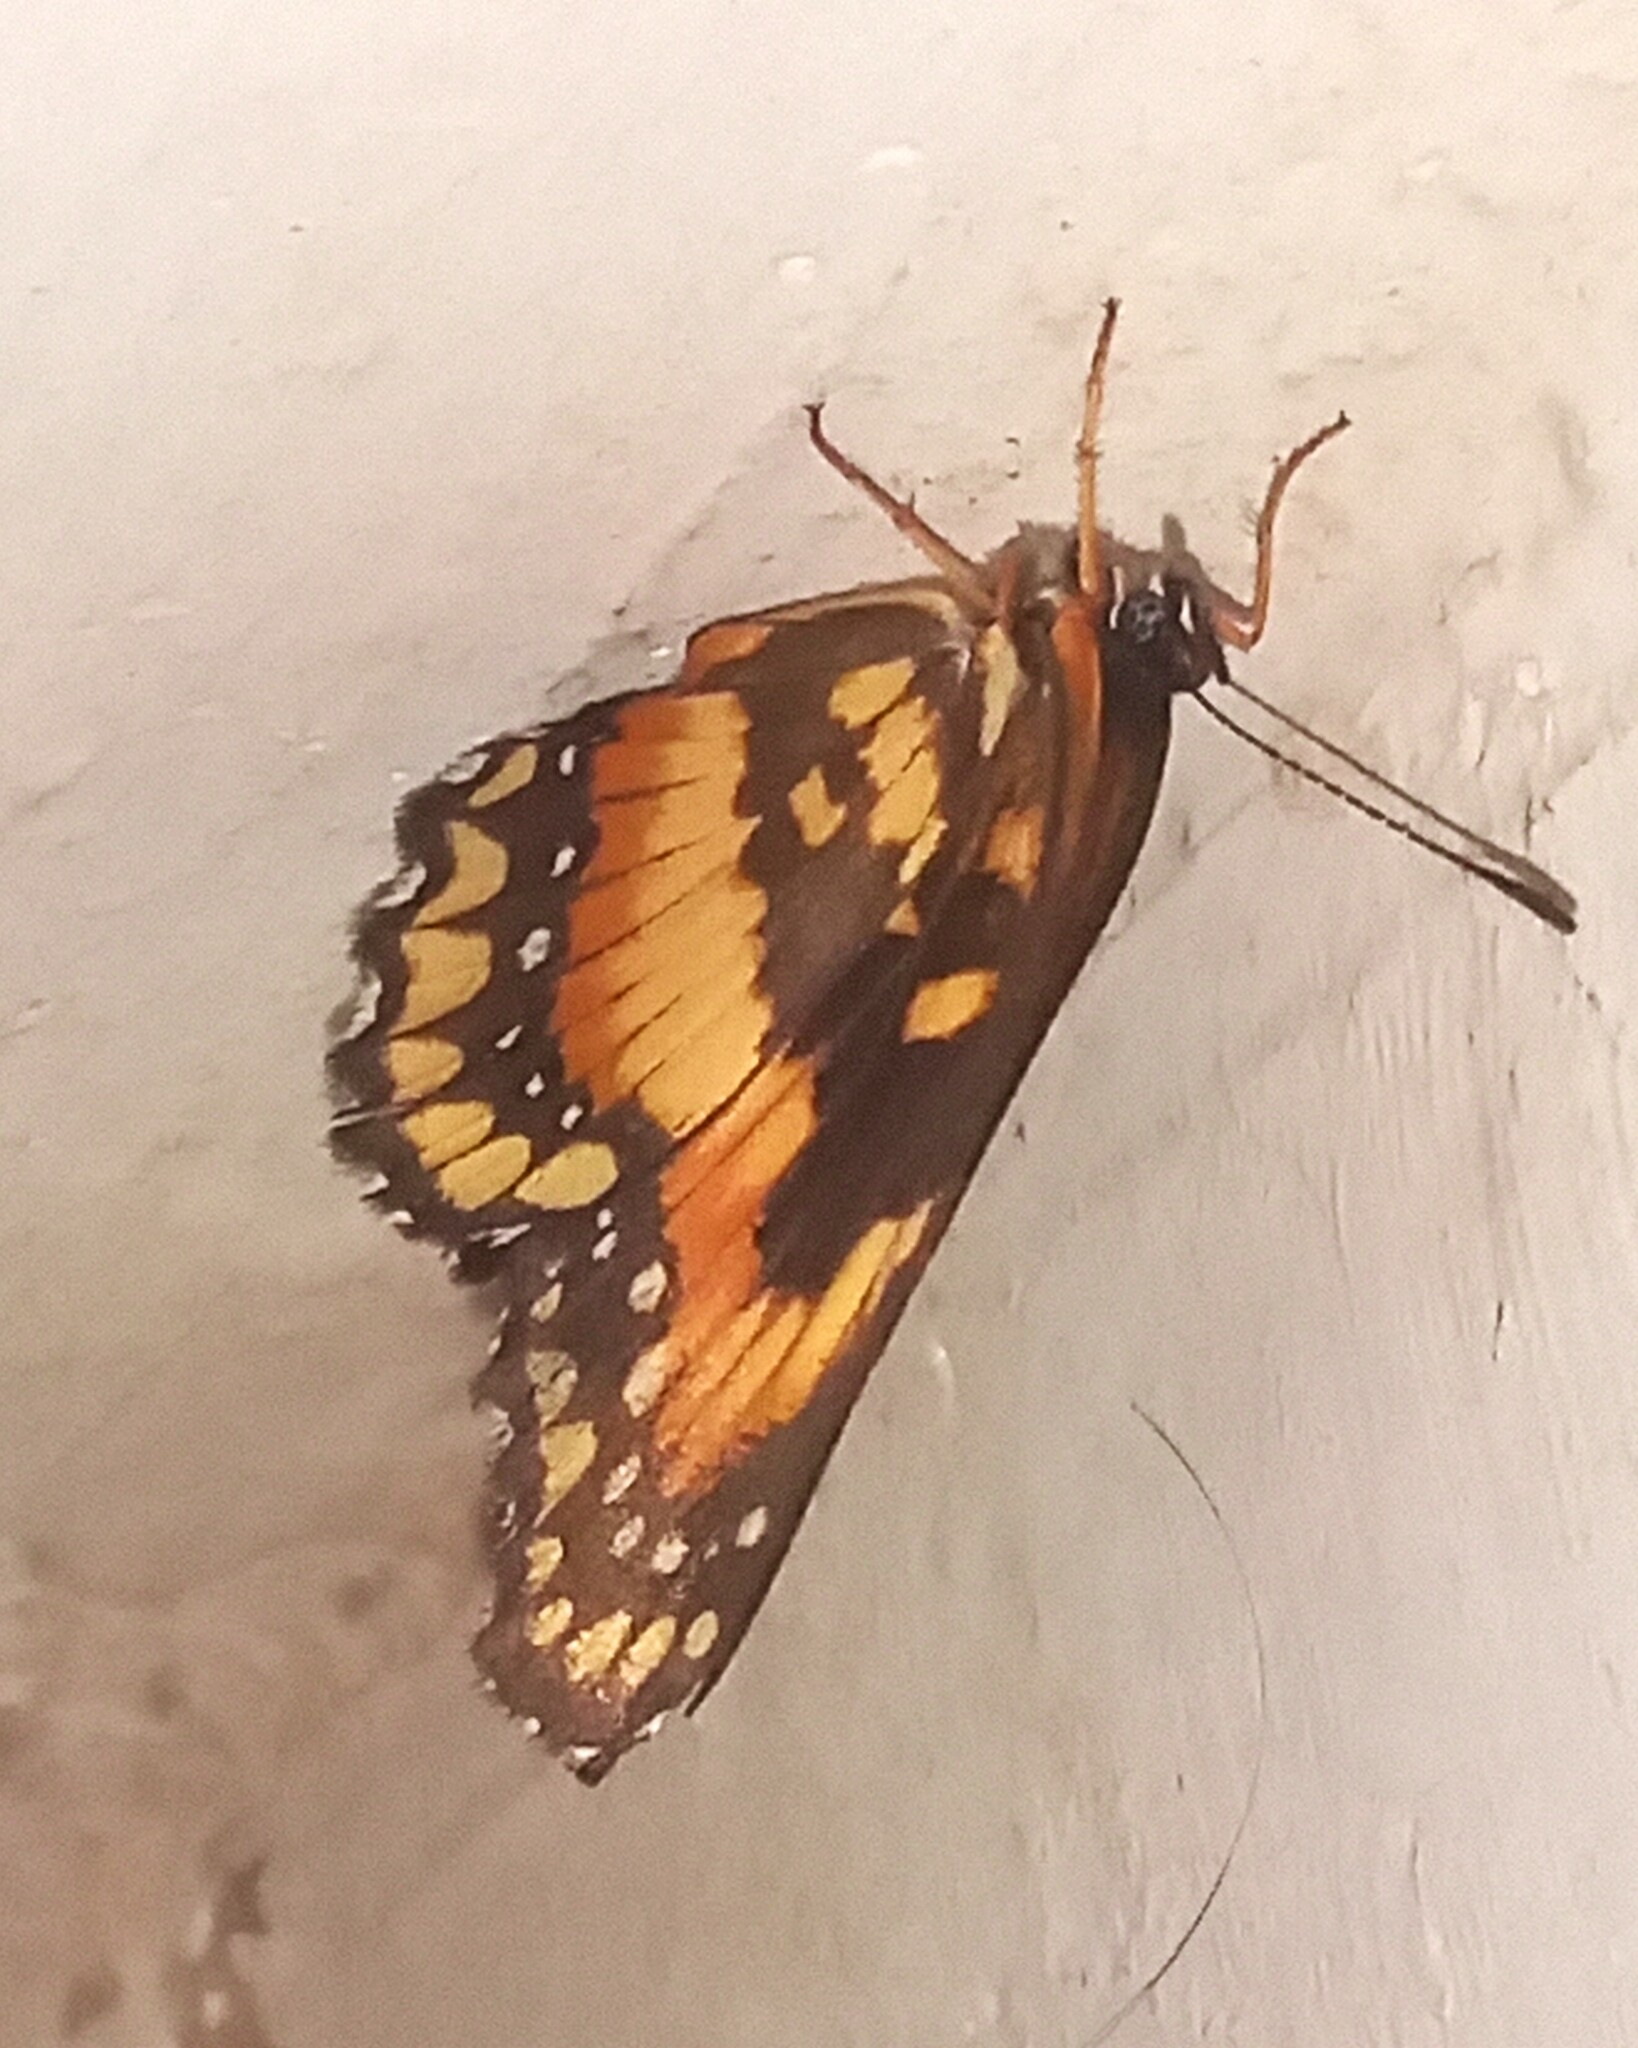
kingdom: Animalia
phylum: Arthropoda
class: Insecta
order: Lepidoptera
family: Nymphalidae
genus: Chlosyne
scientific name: Chlosyne lacinia
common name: Bordered patch
